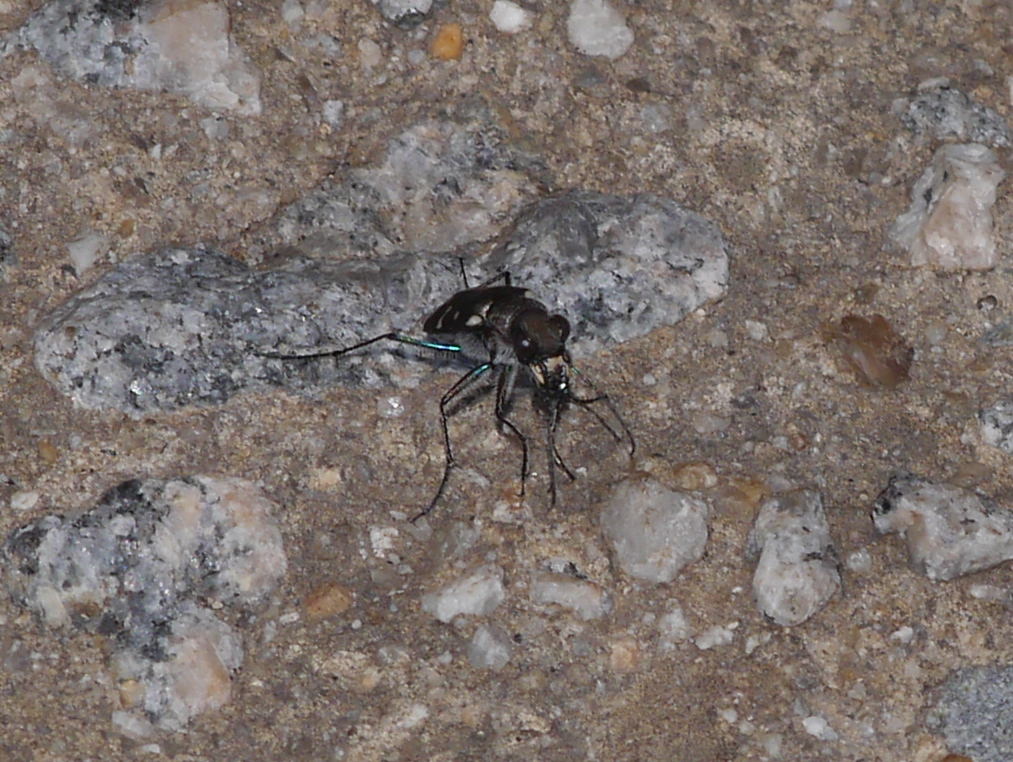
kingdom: Animalia
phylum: Arthropoda
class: Insecta
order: Coleoptera
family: Carabidae
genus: Cicindela
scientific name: Cicindela duodecimguttata
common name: Twelve-spotted tiger beetle
